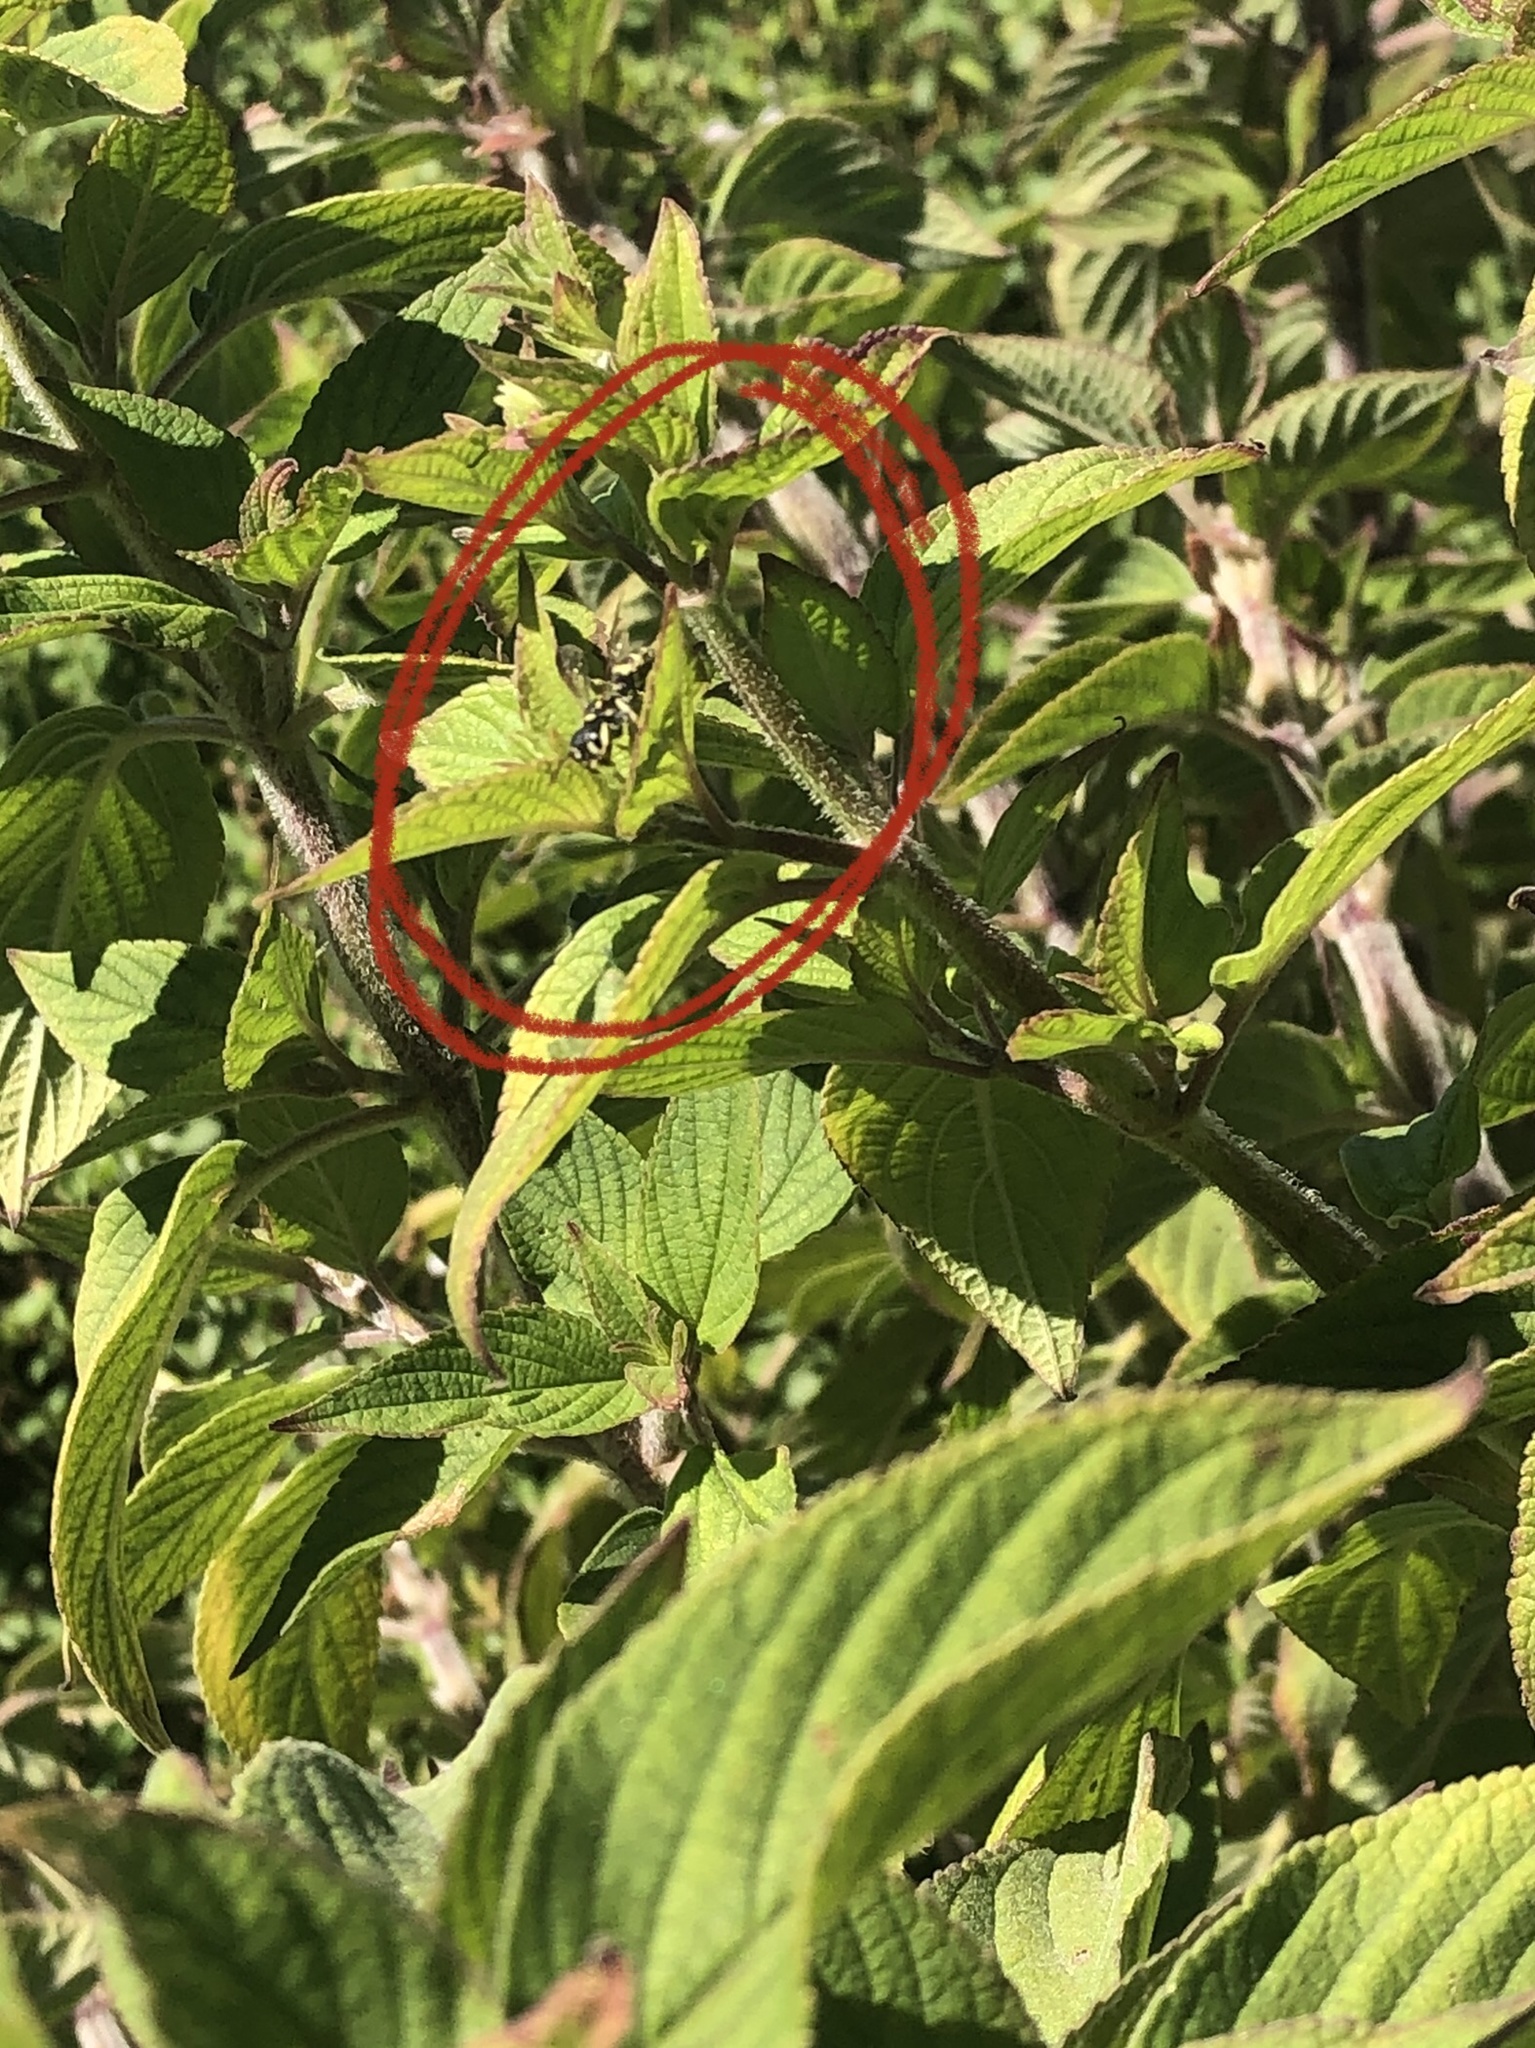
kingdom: Animalia
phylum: Arthropoda
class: Insecta
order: Hymenoptera
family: Crabronidae
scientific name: Crabronidae
